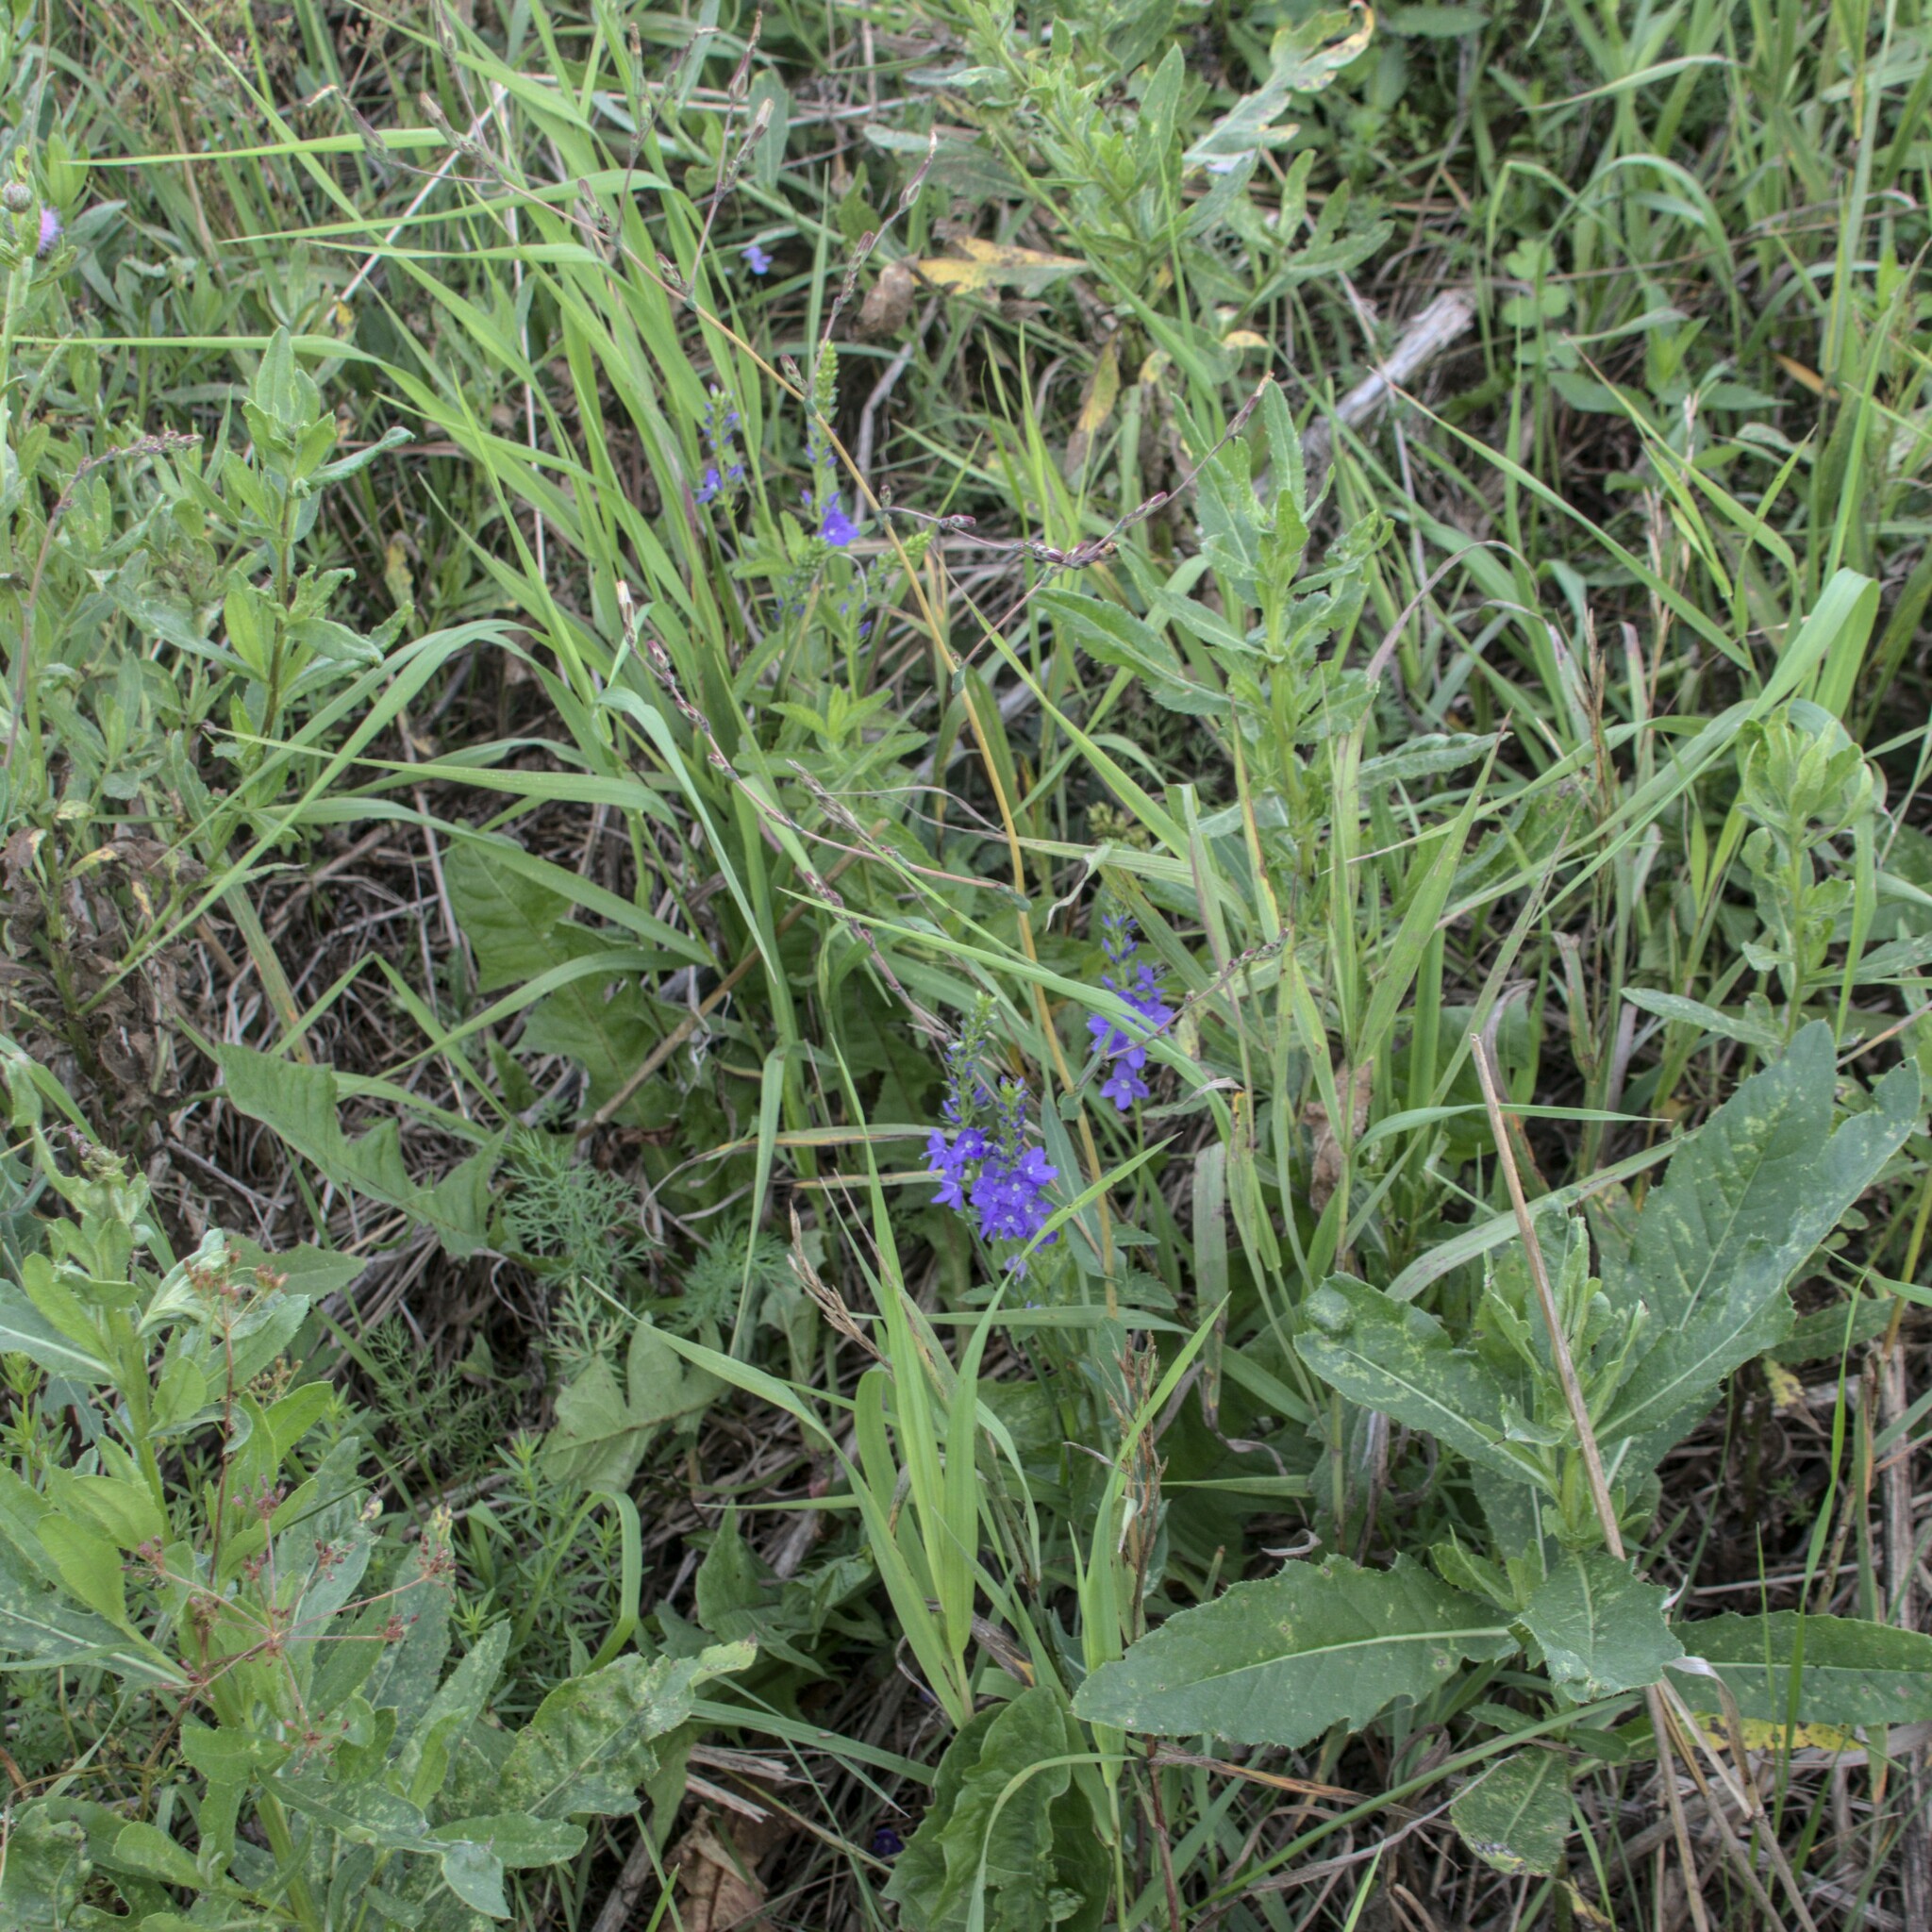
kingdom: Plantae
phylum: Tracheophyta
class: Magnoliopsida
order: Lamiales
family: Plantaginaceae
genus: Veronica
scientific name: Veronica teucrium
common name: Large speedwell
